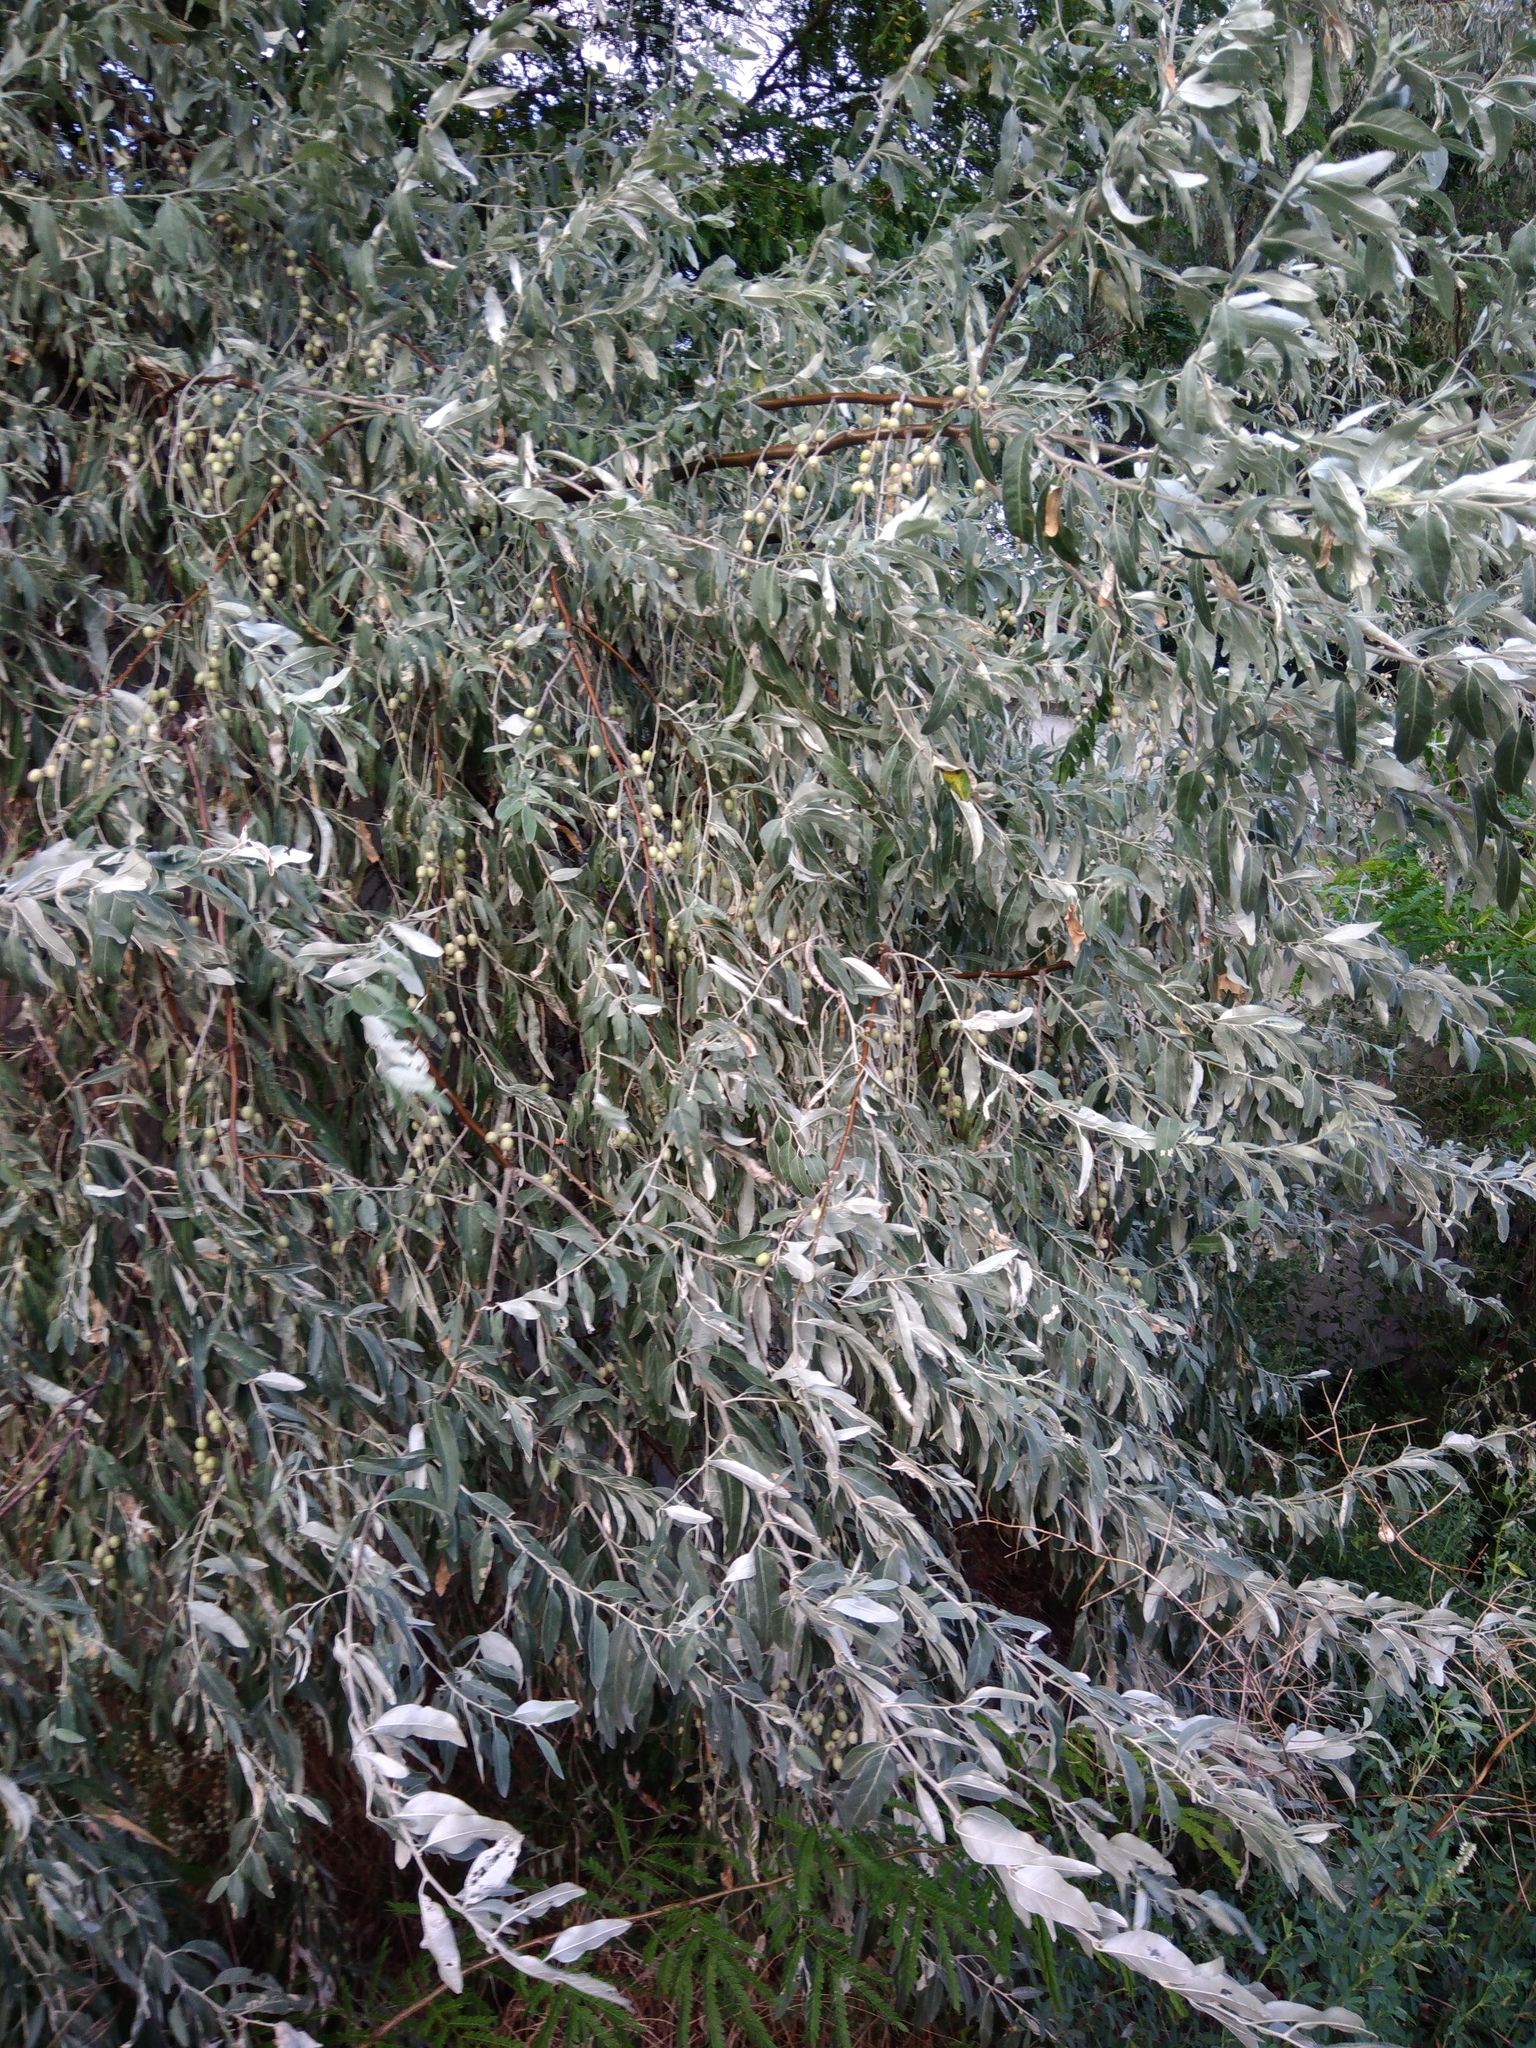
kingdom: Plantae
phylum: Tracheophyta
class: Magnoliopsida
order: Rosales
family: Elaeagnaceae
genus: Elaeagnus
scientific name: Elaeagnus angustifolia
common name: Russian olive
